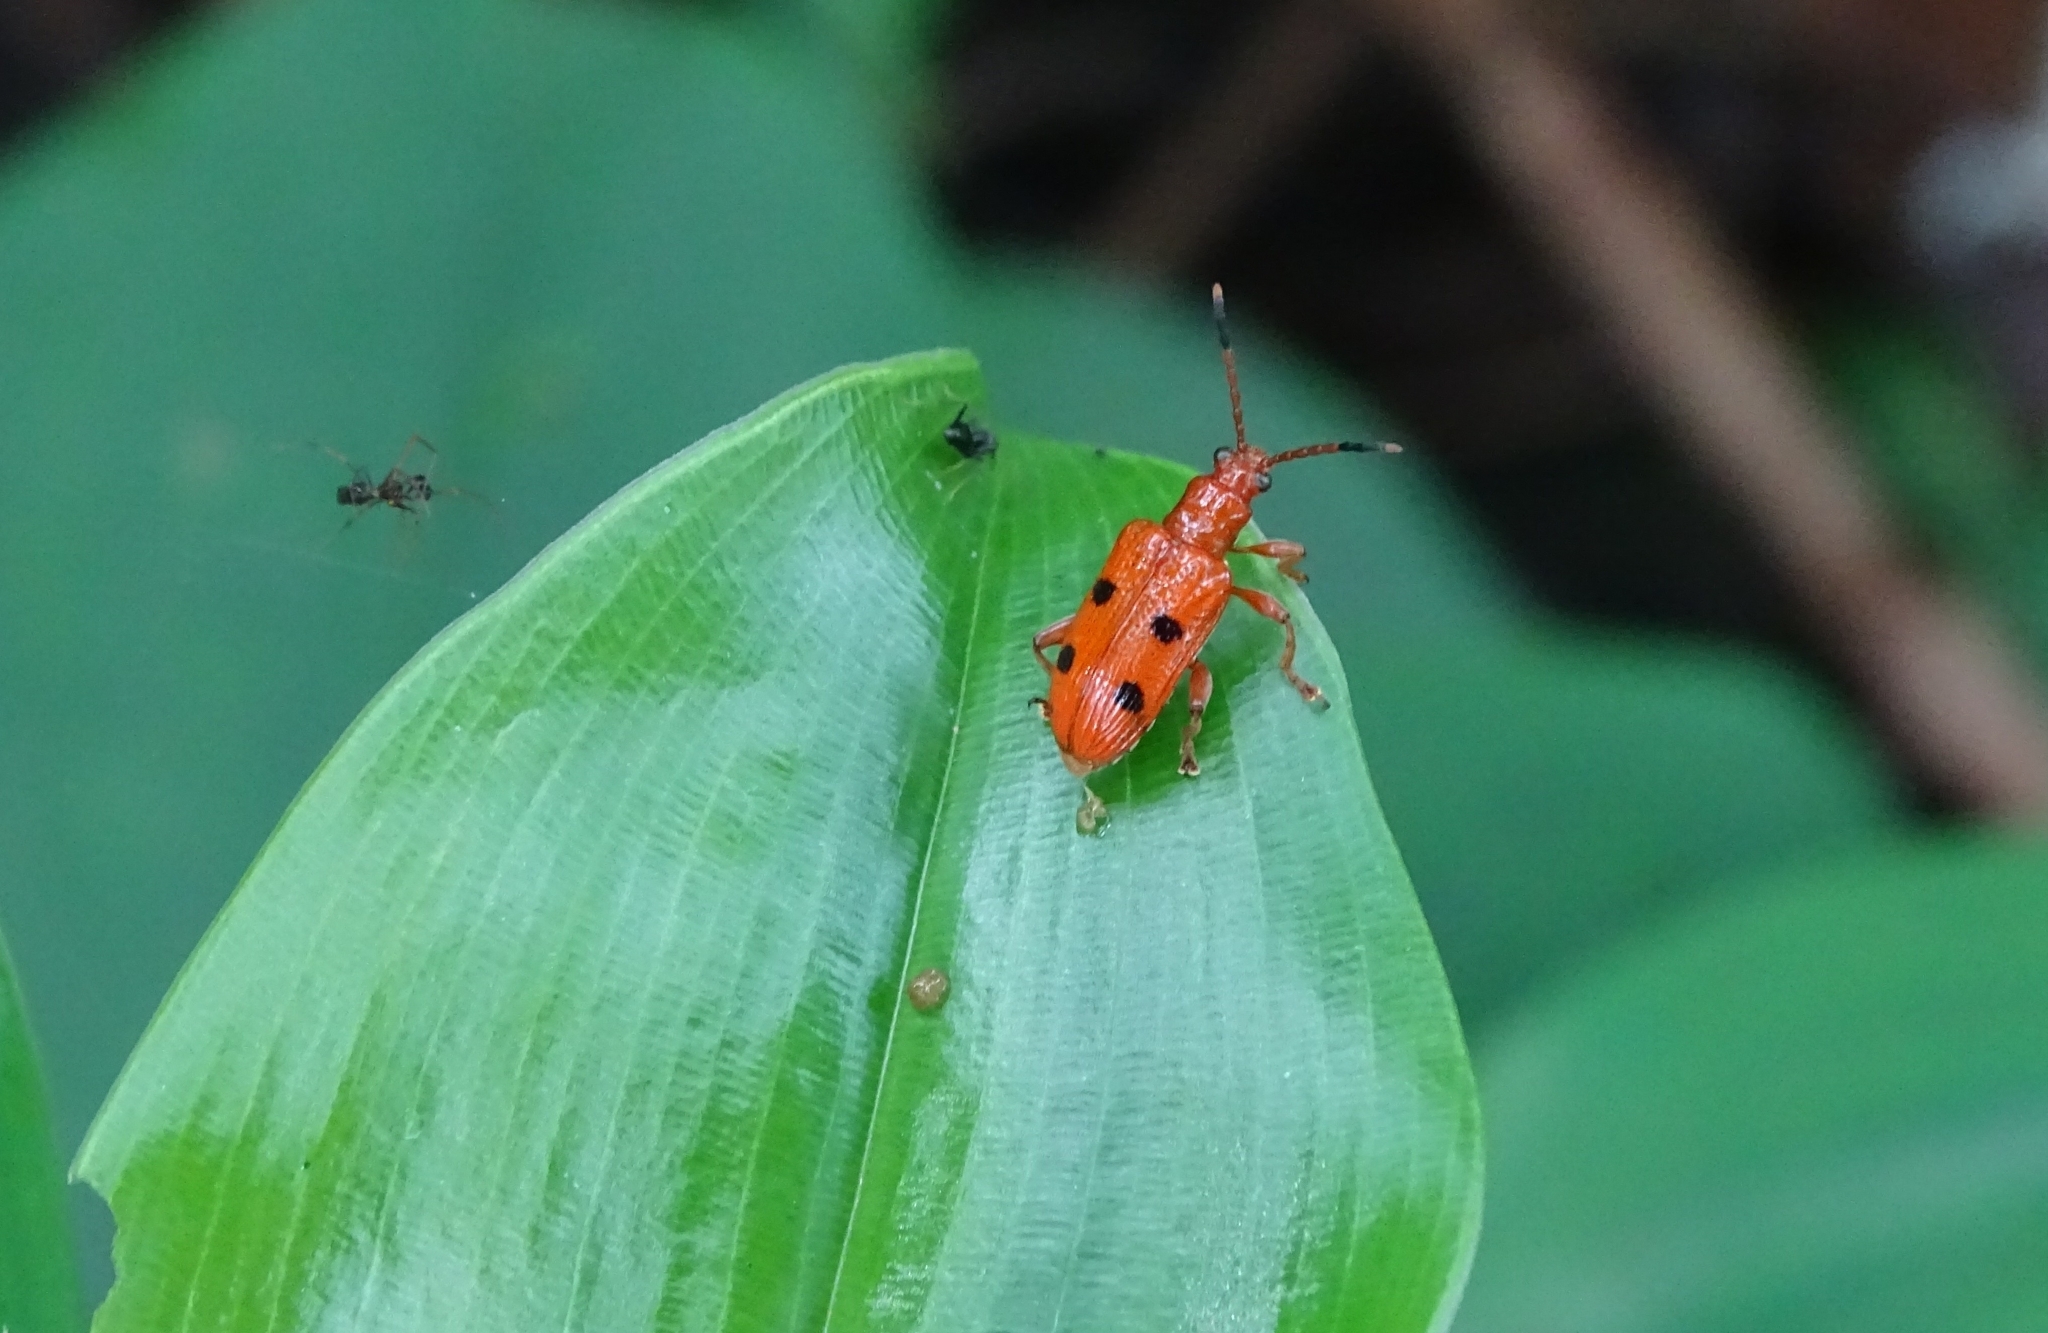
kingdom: Animalia
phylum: Arthropoda
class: Insecta
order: Coleoptera
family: Chrysomelidae
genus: Lema
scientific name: Lema
